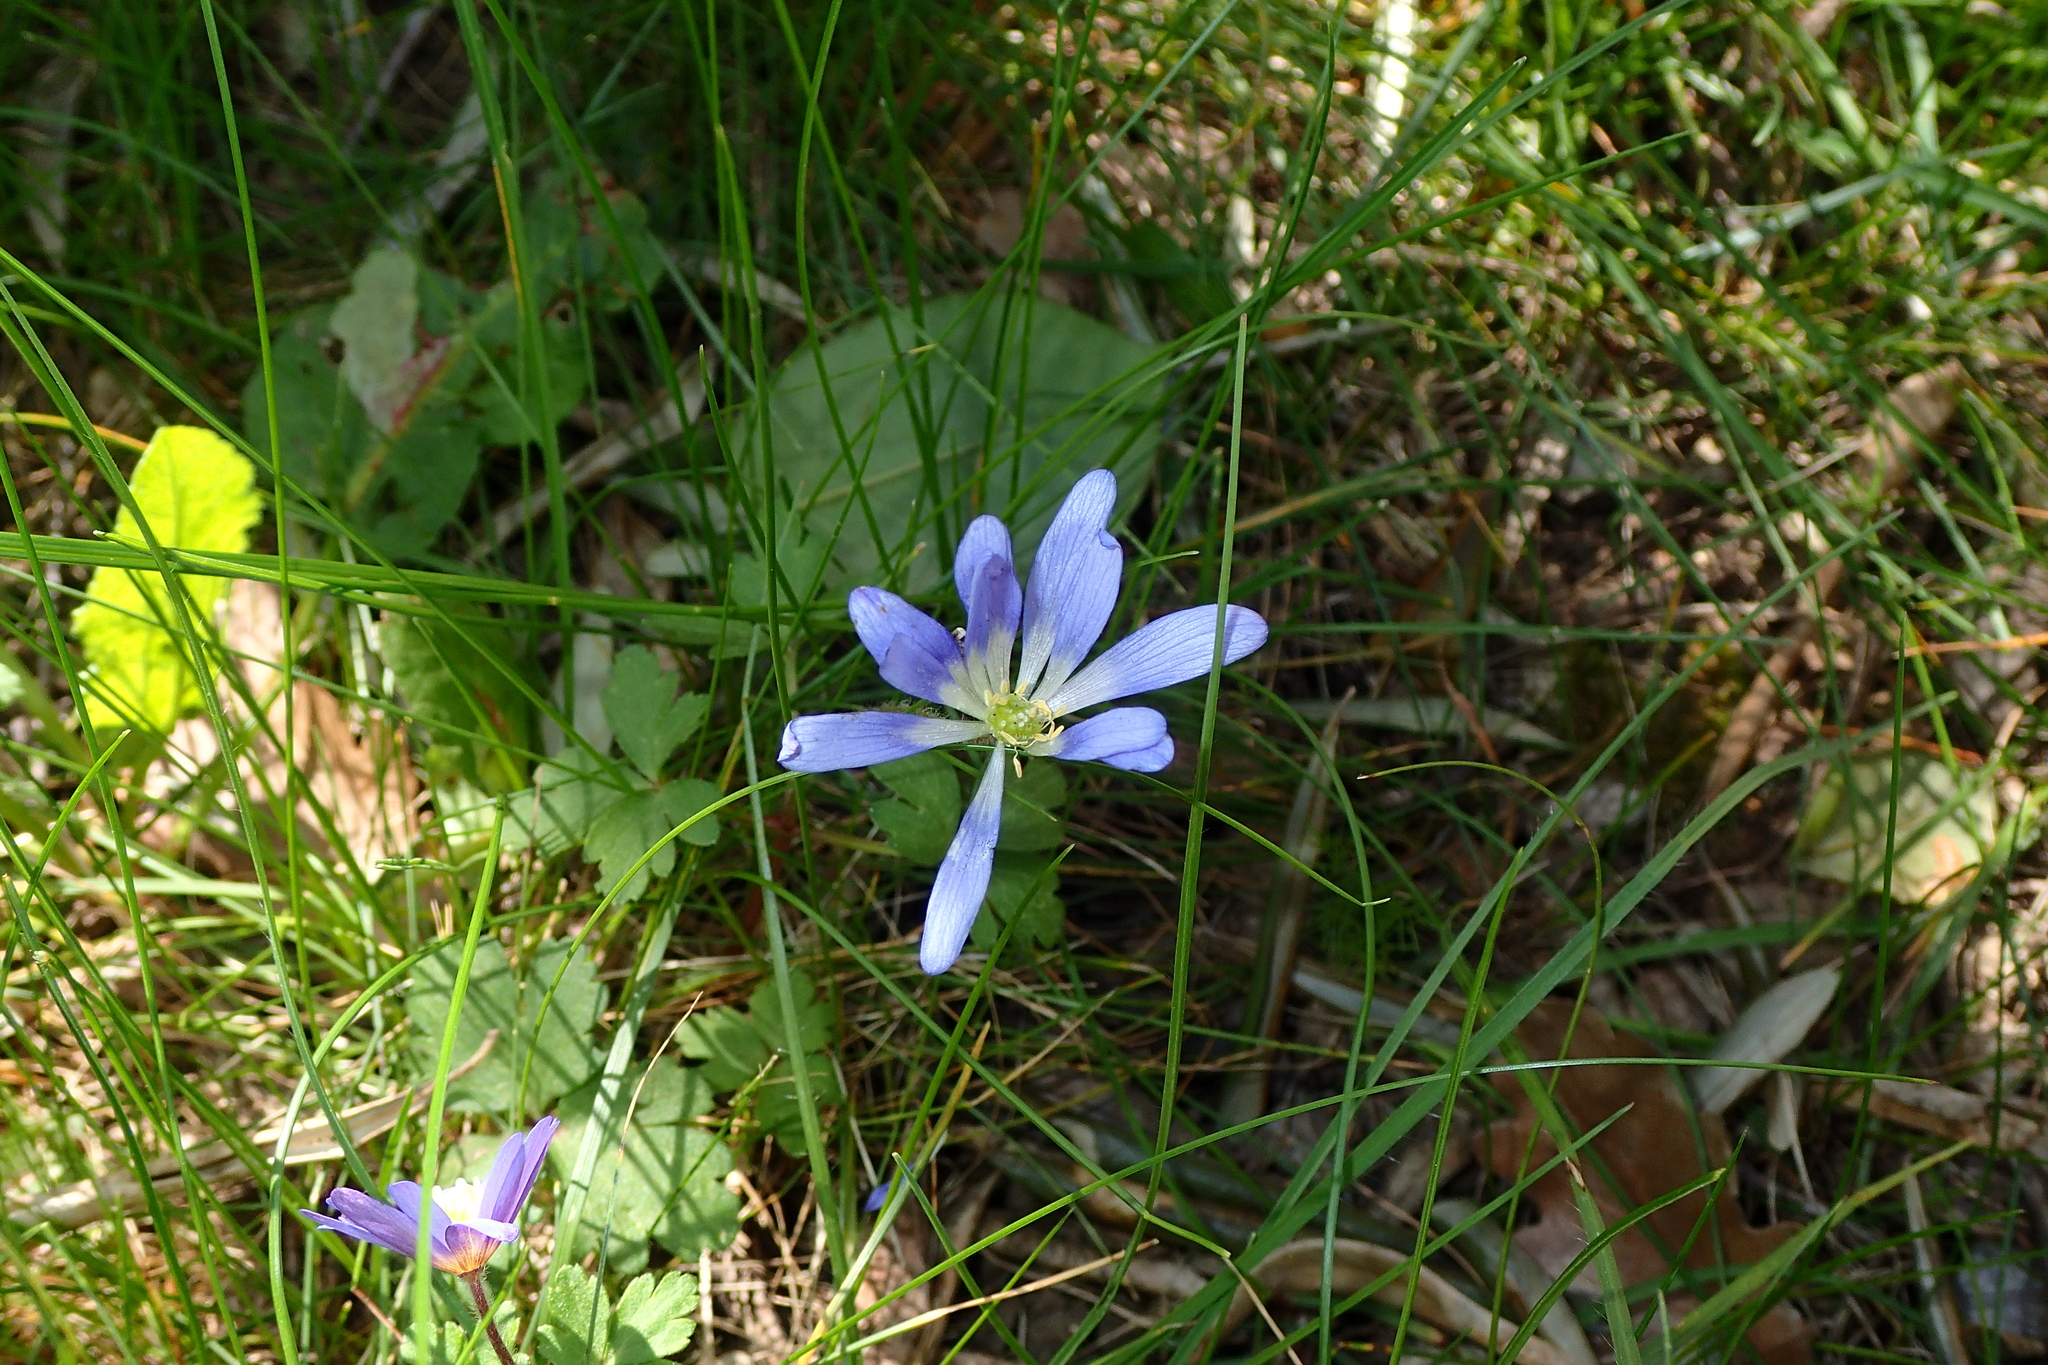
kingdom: Plantae
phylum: Tracheophyta
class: Magnoliopsida
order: Ranunculales
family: Ranunculaceae
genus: Anemone
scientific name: Anemone blanda
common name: Balkan anemone
